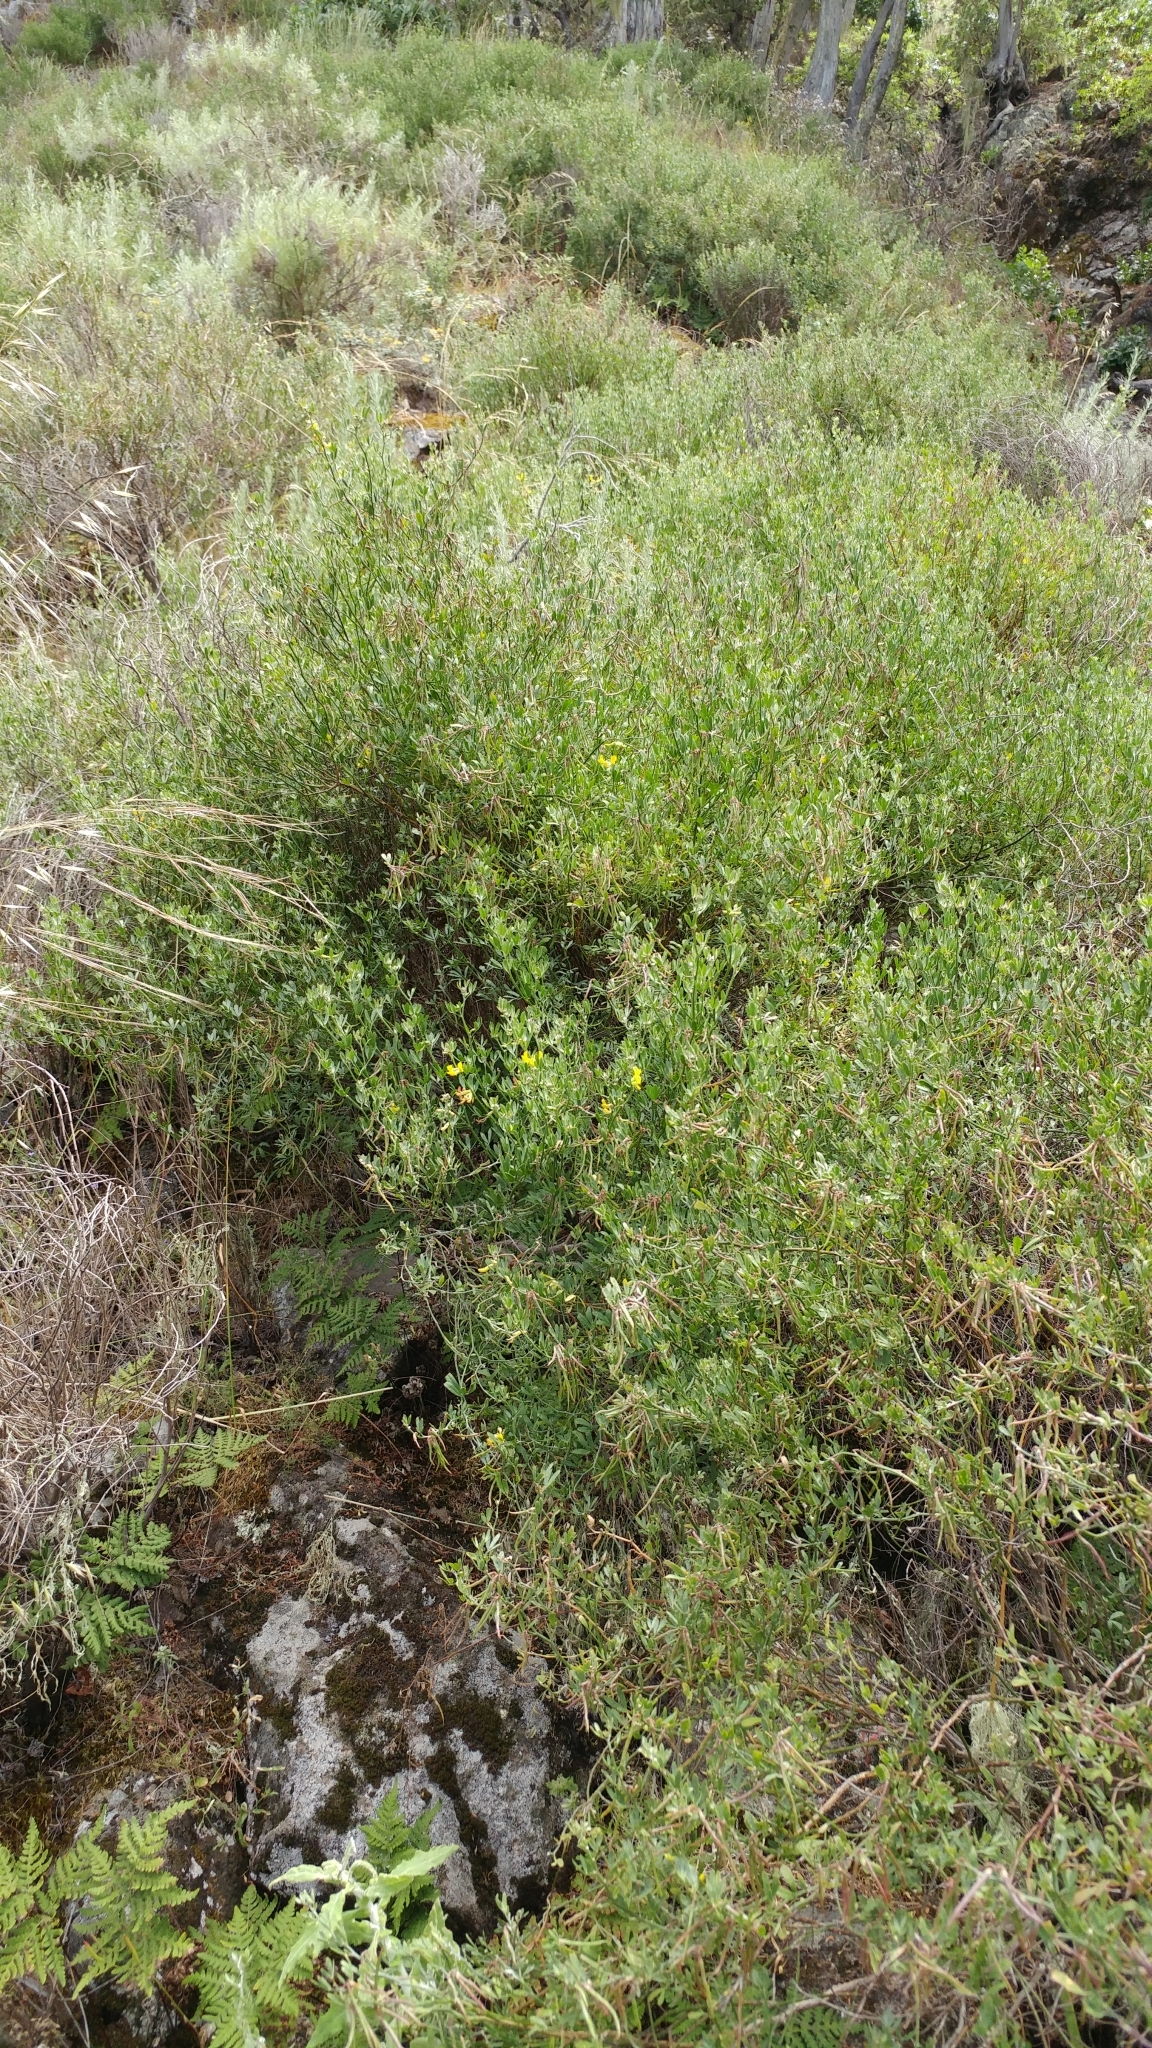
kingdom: Plantae
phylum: Tracheophyta
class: Magnoliopsida
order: Fabales
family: Fabaceae
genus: Acmispon
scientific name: Acmispon dendroideus
